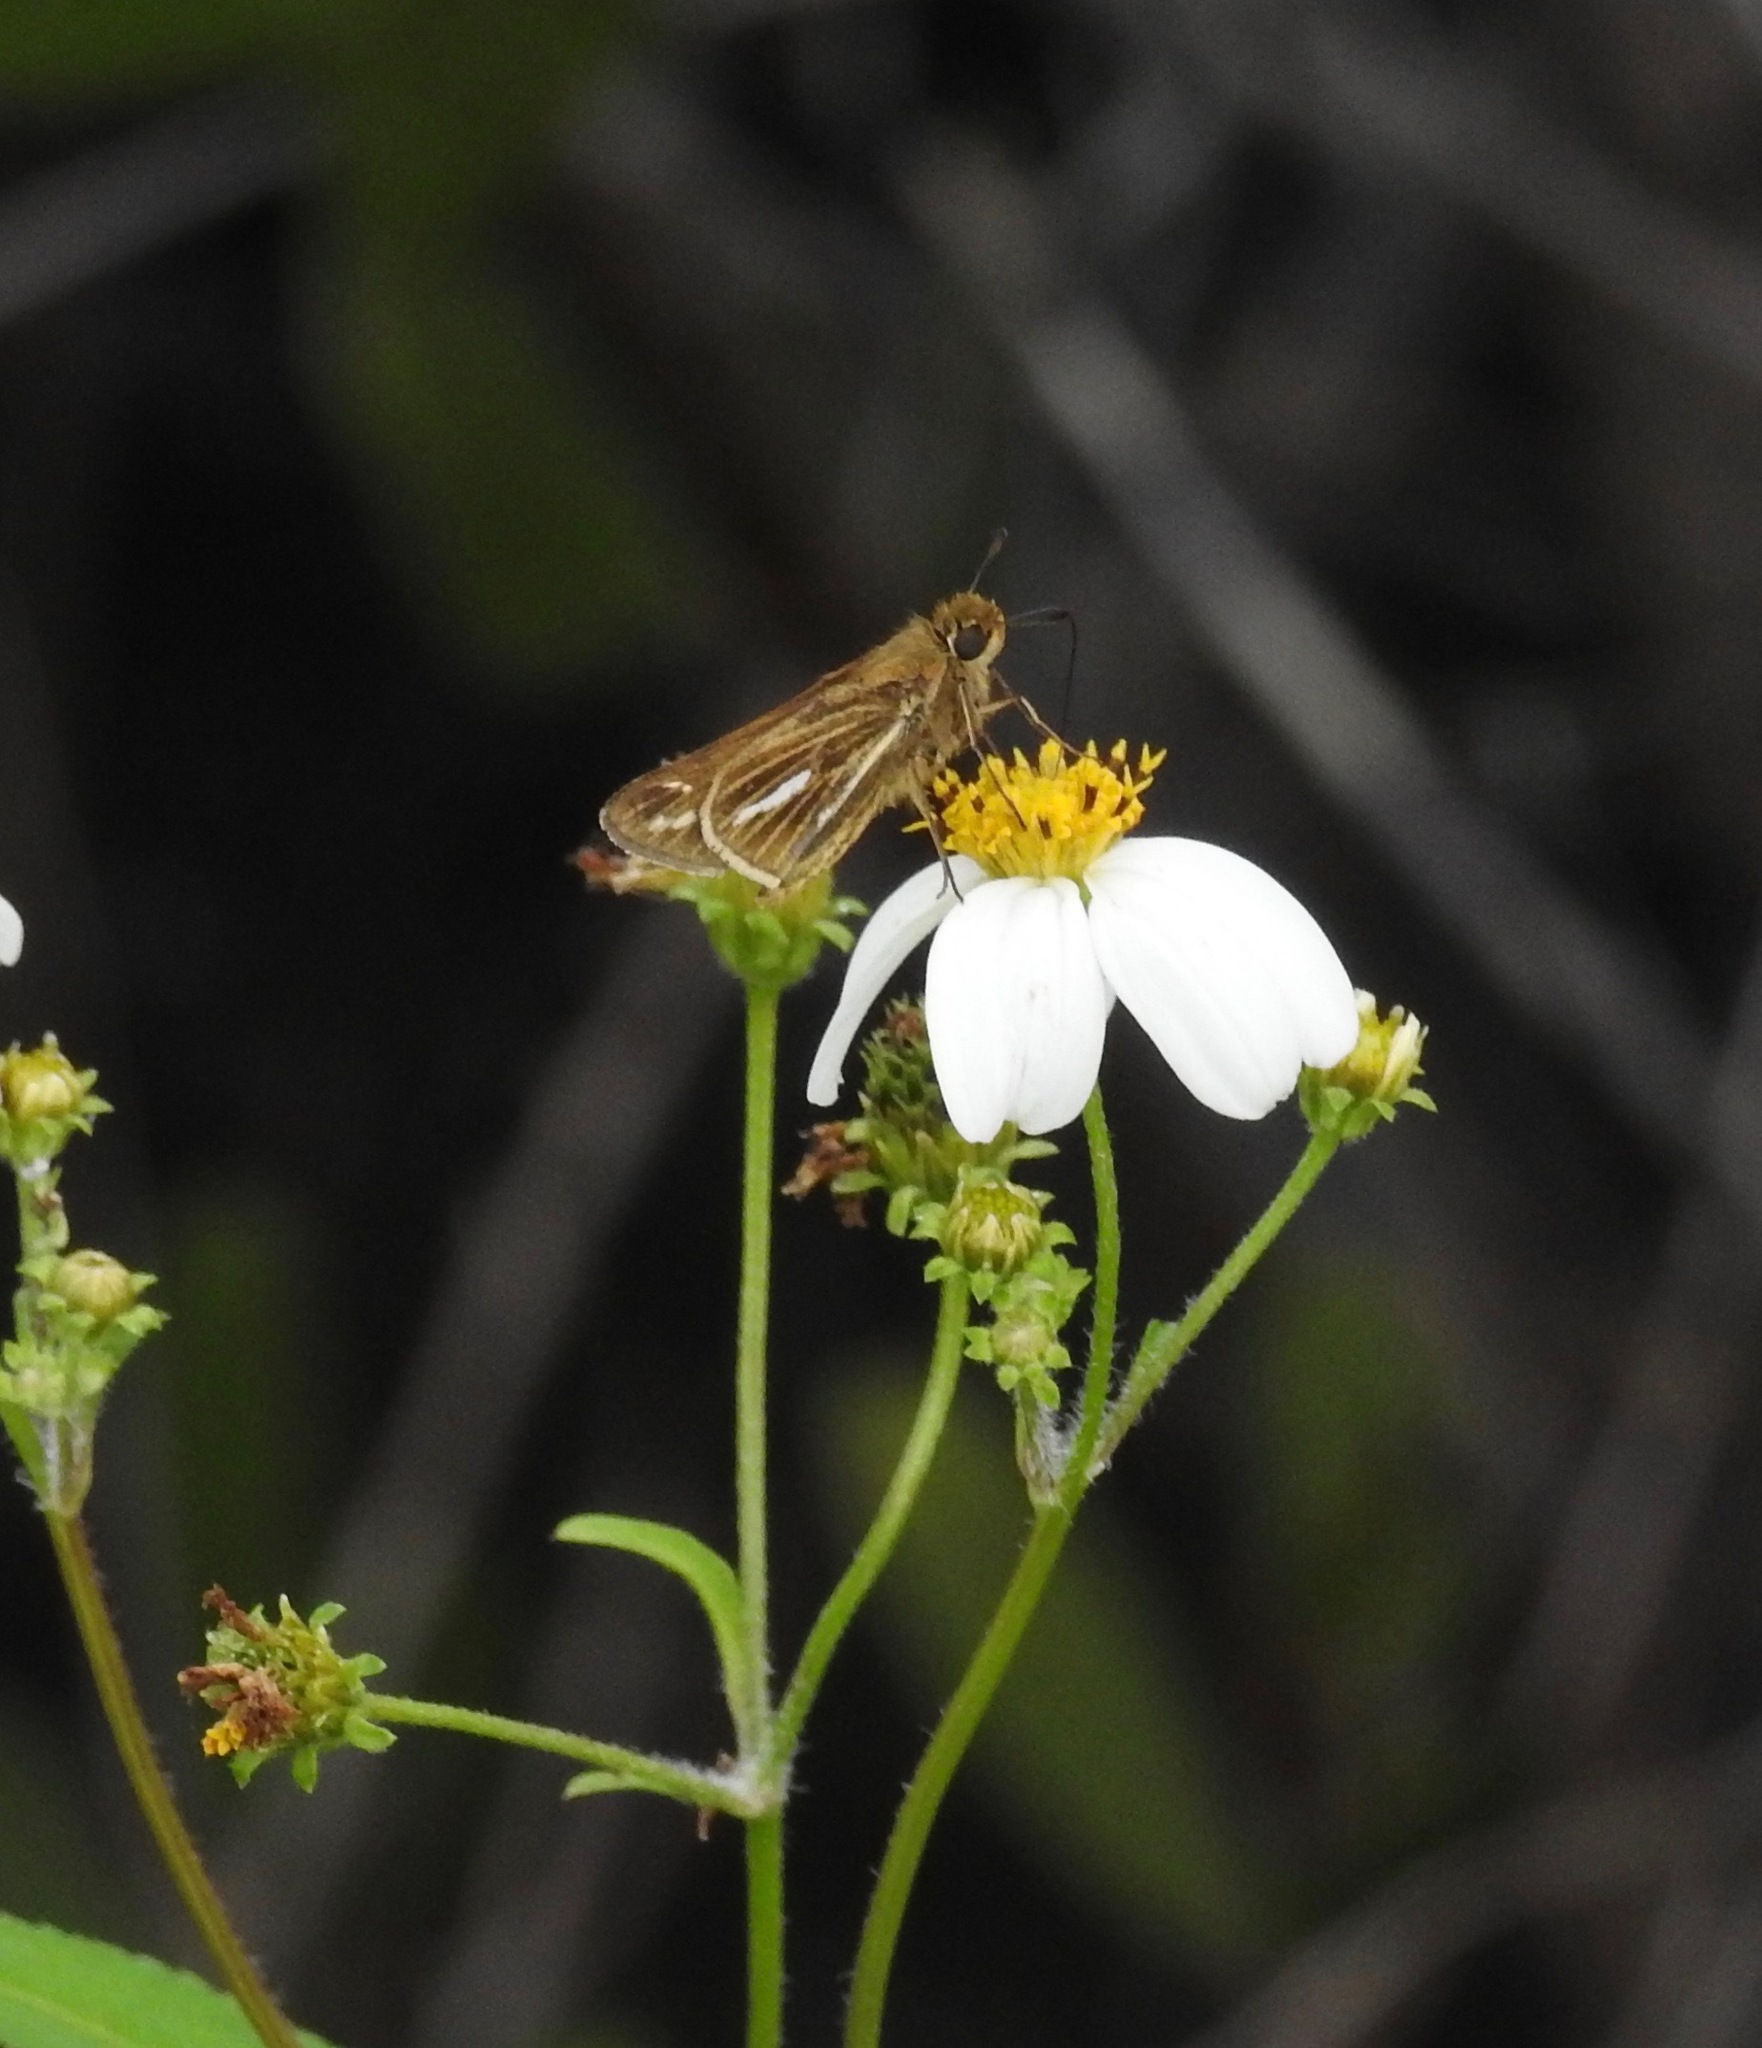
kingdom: Animalia
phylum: Arthropoda
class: Insecta
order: Lepidoptera
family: Hesperiidae
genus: Panoquina
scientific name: Panoquina panoquin
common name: Salt marsh skipper
